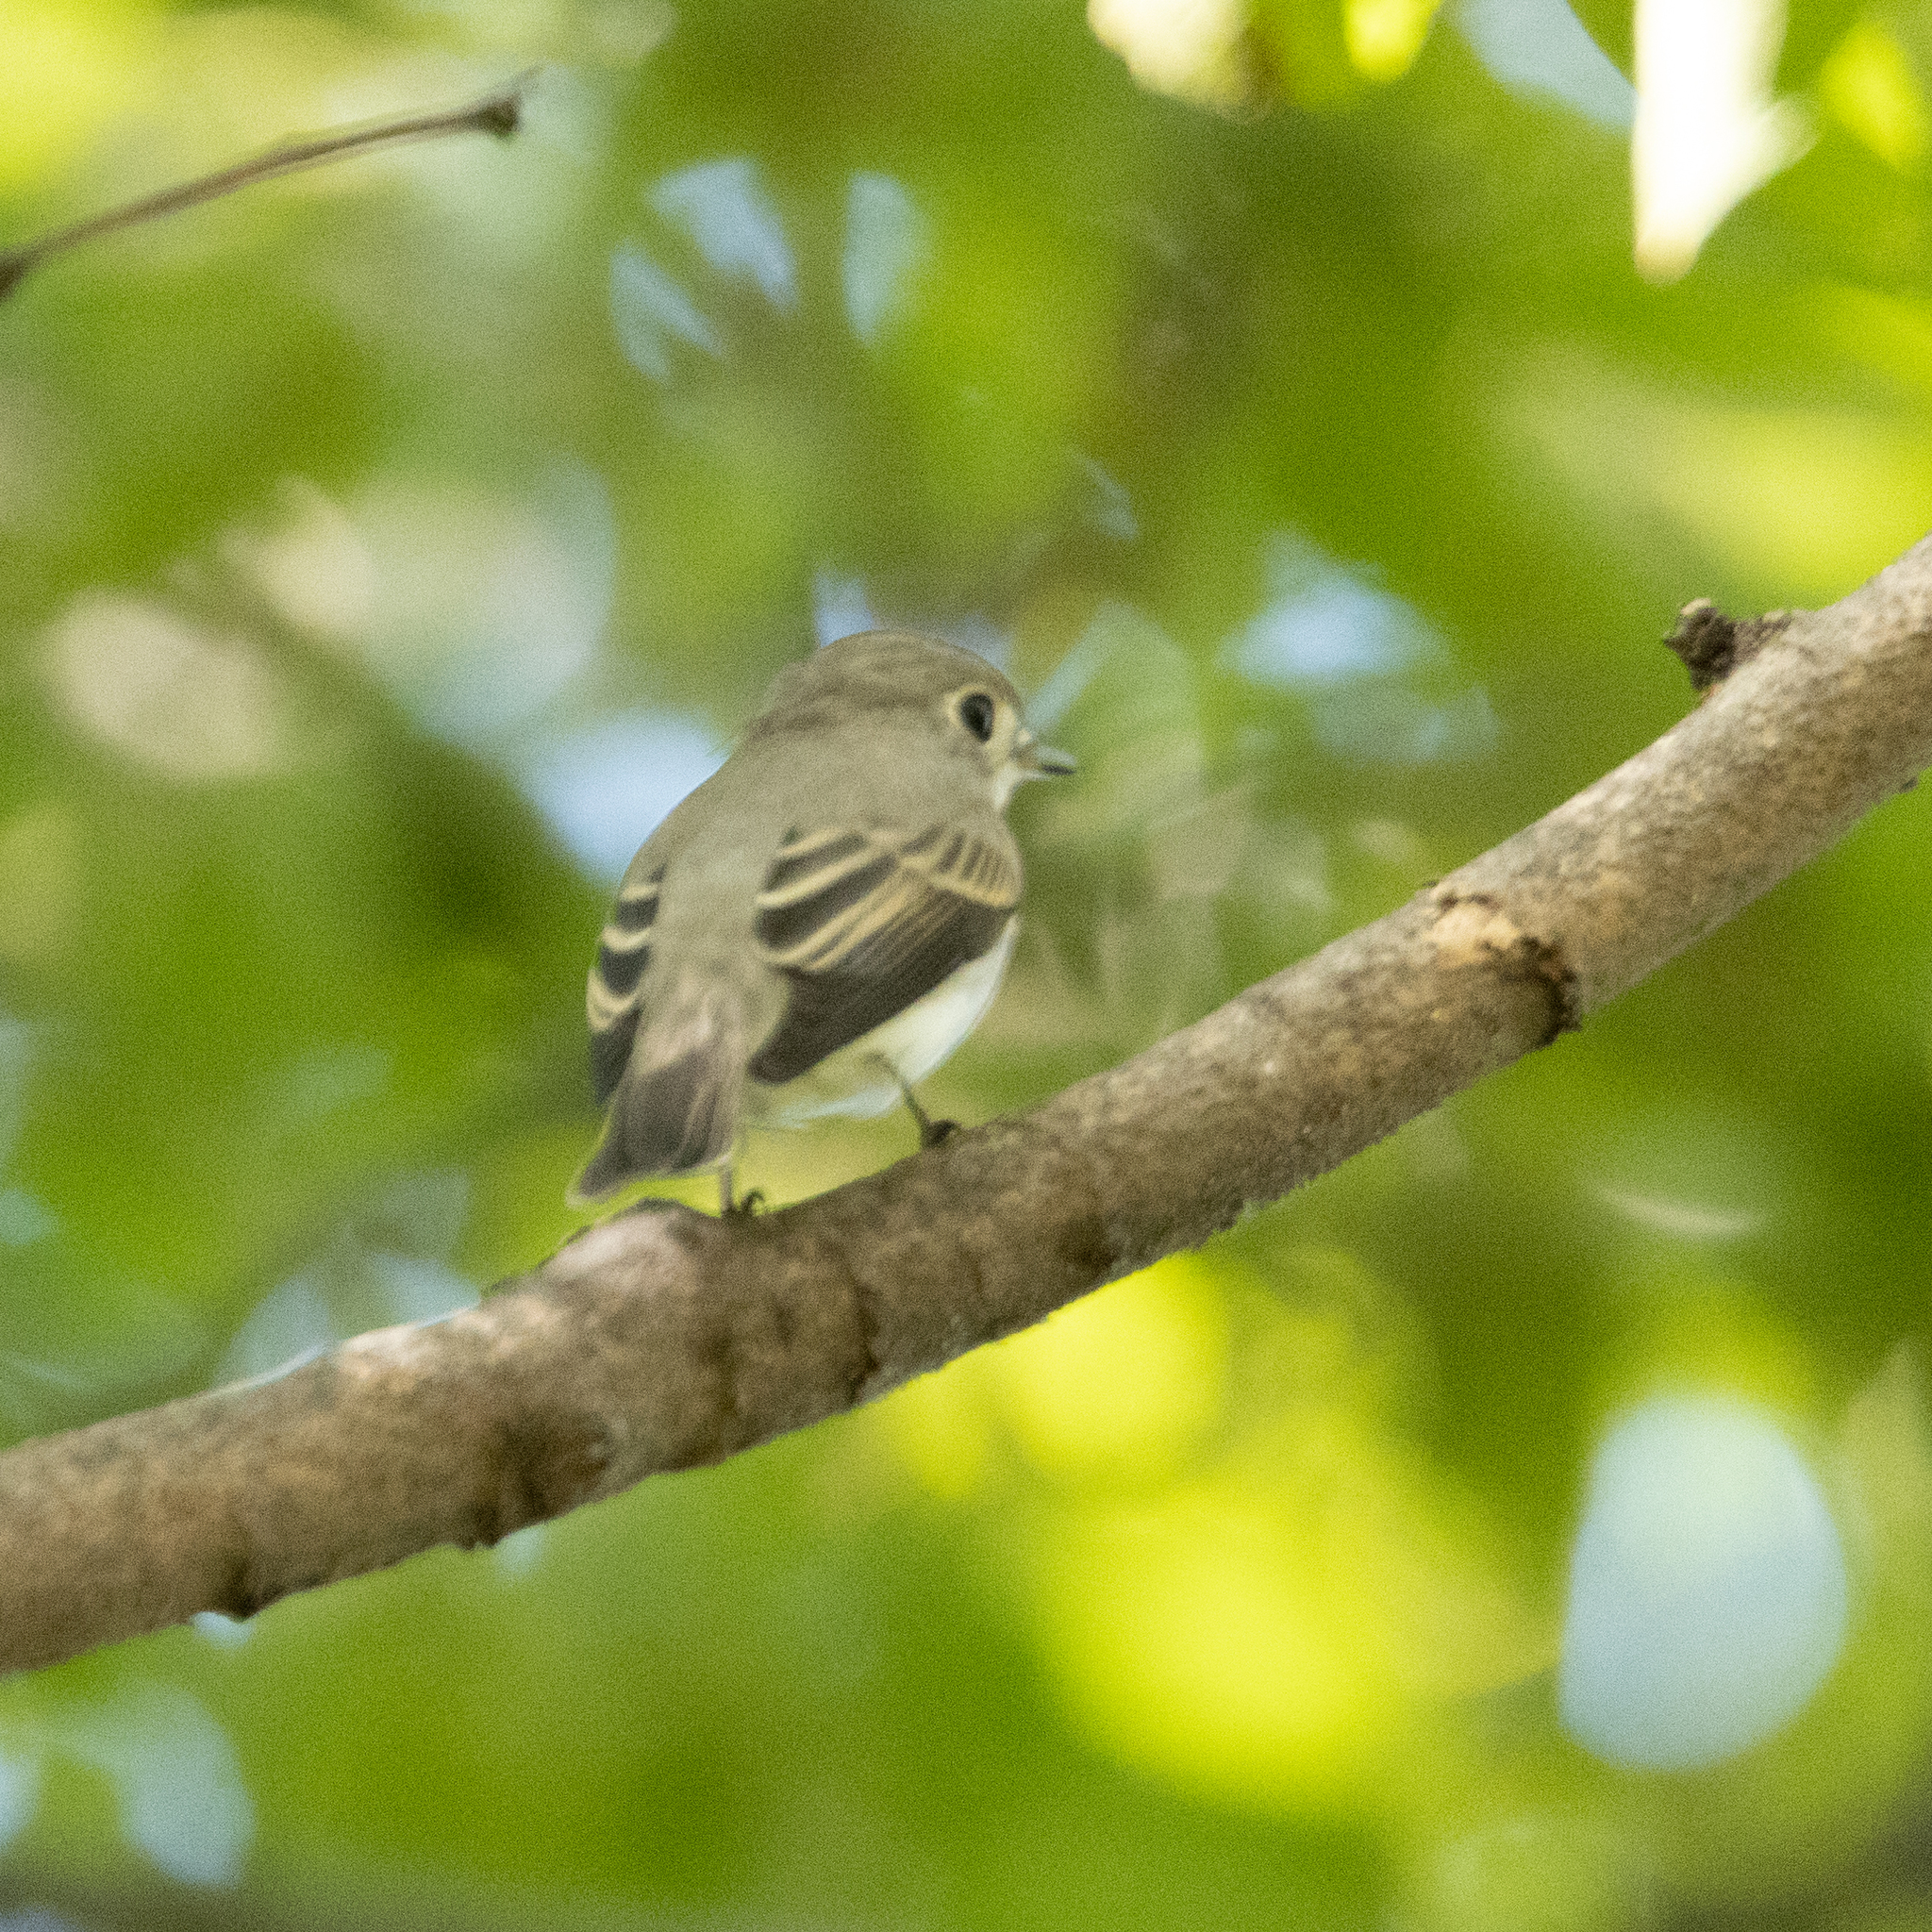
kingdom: Animalia
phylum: Chordata
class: Aves
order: Passeriformes
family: Muscicapidae
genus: Muscicapa
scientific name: Muscicapa latirostris
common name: Asian brown flycatcher
